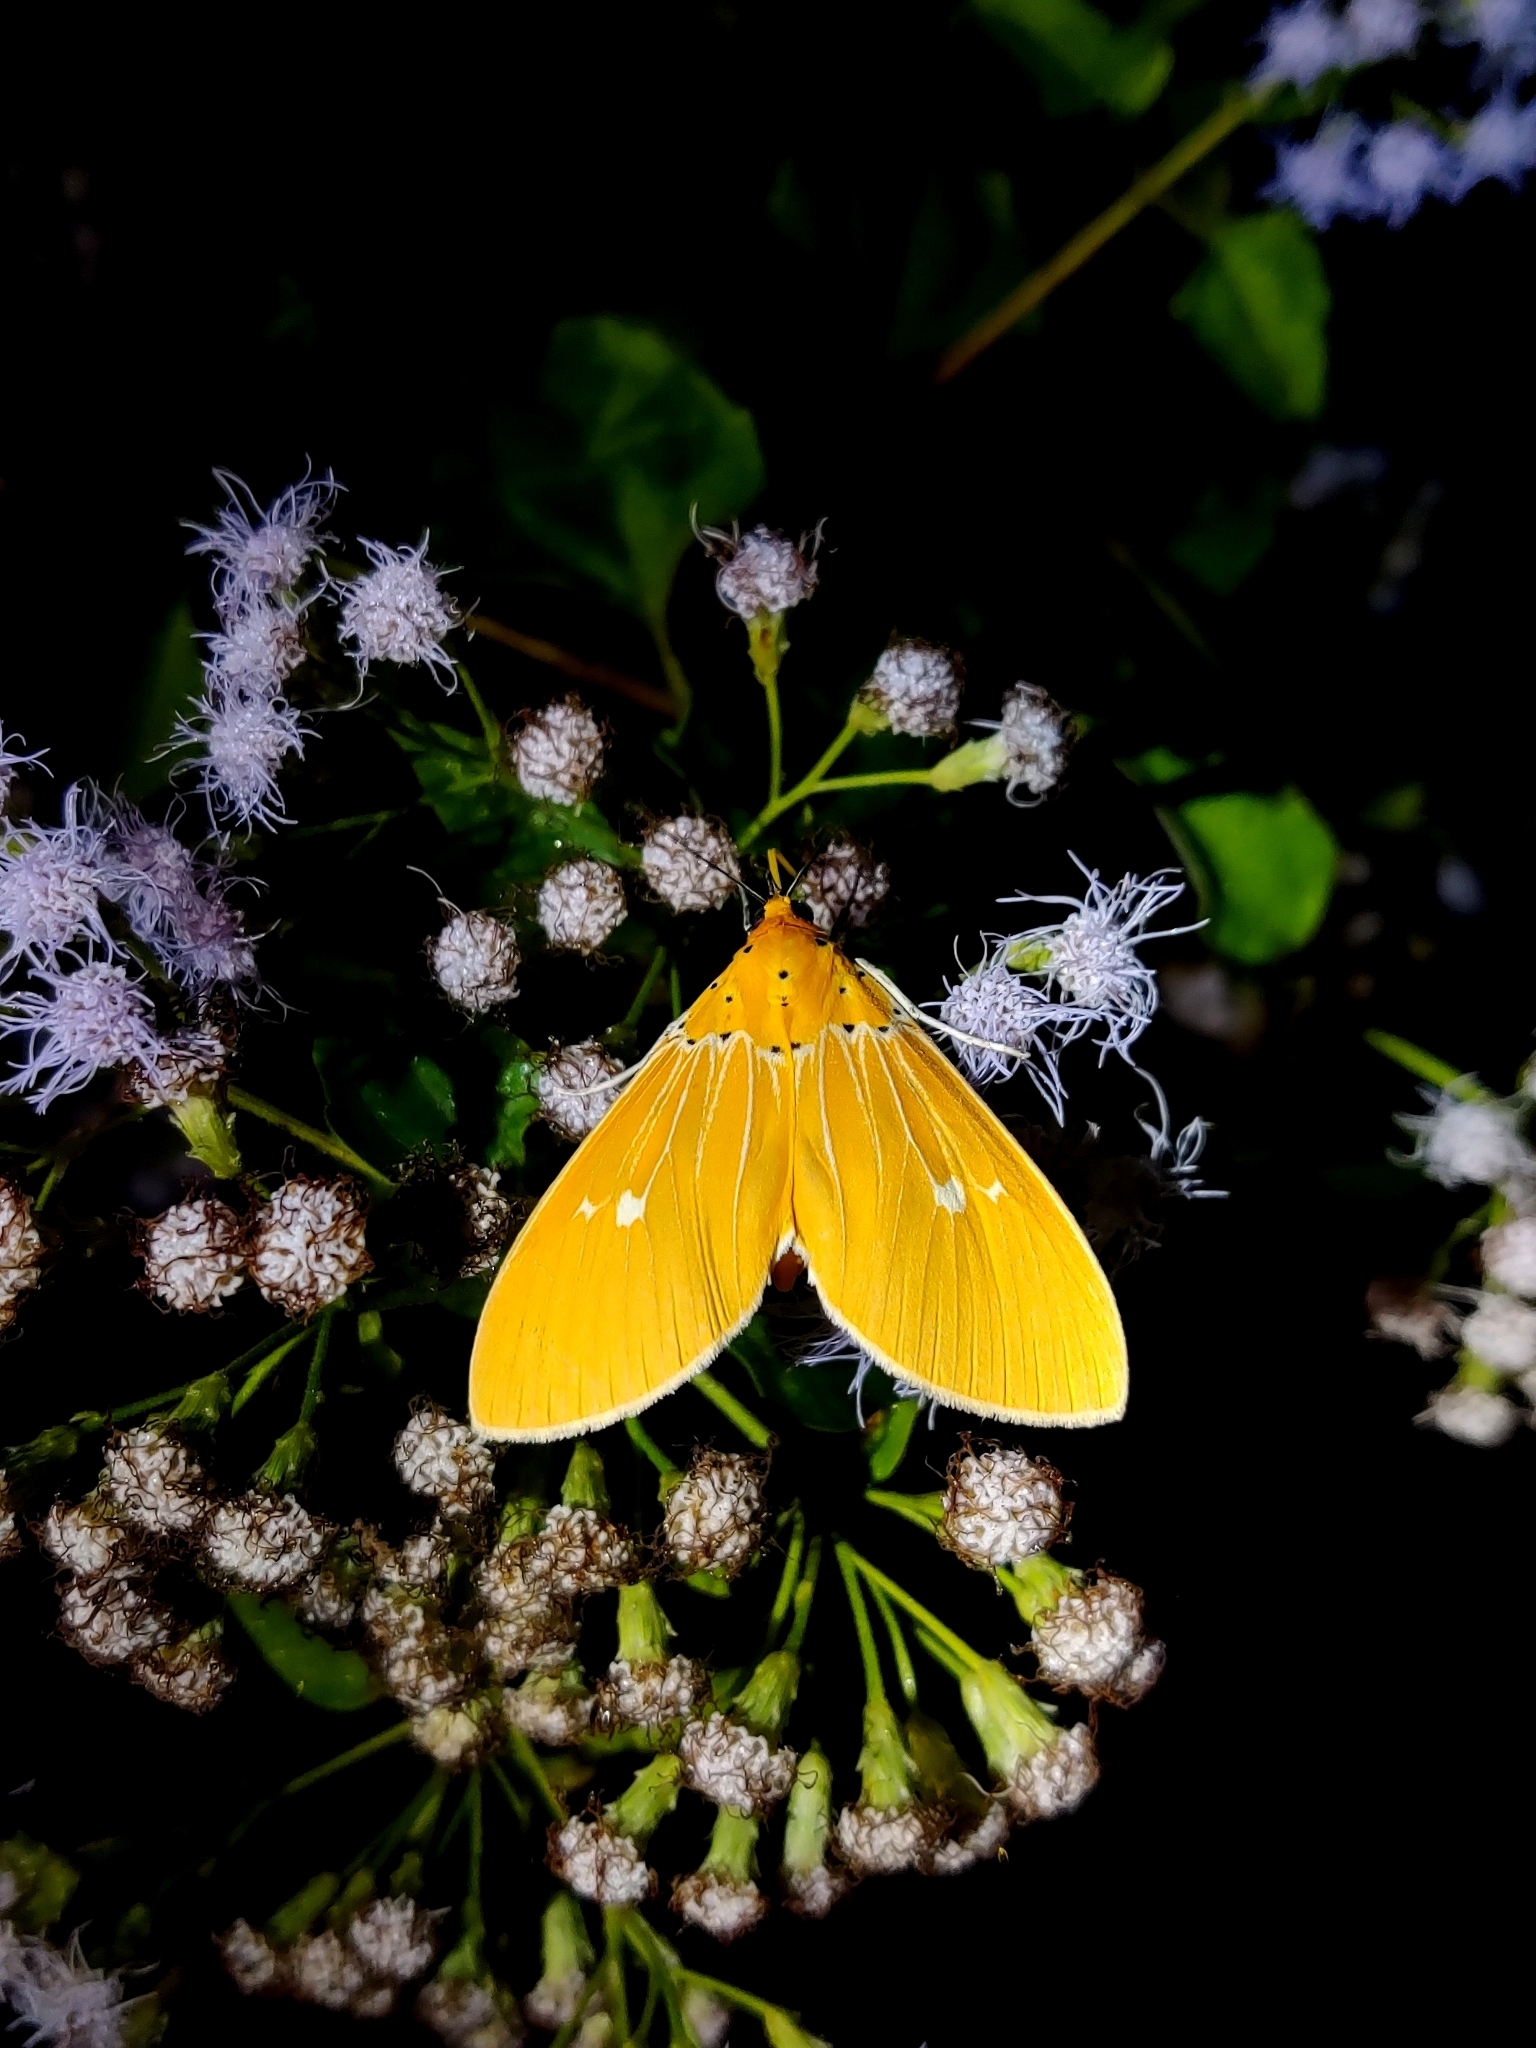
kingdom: Animalia
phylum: Arthropoda
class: Insecta
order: Lepidoptera
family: Erebidae
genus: Asota
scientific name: Asota sericea
